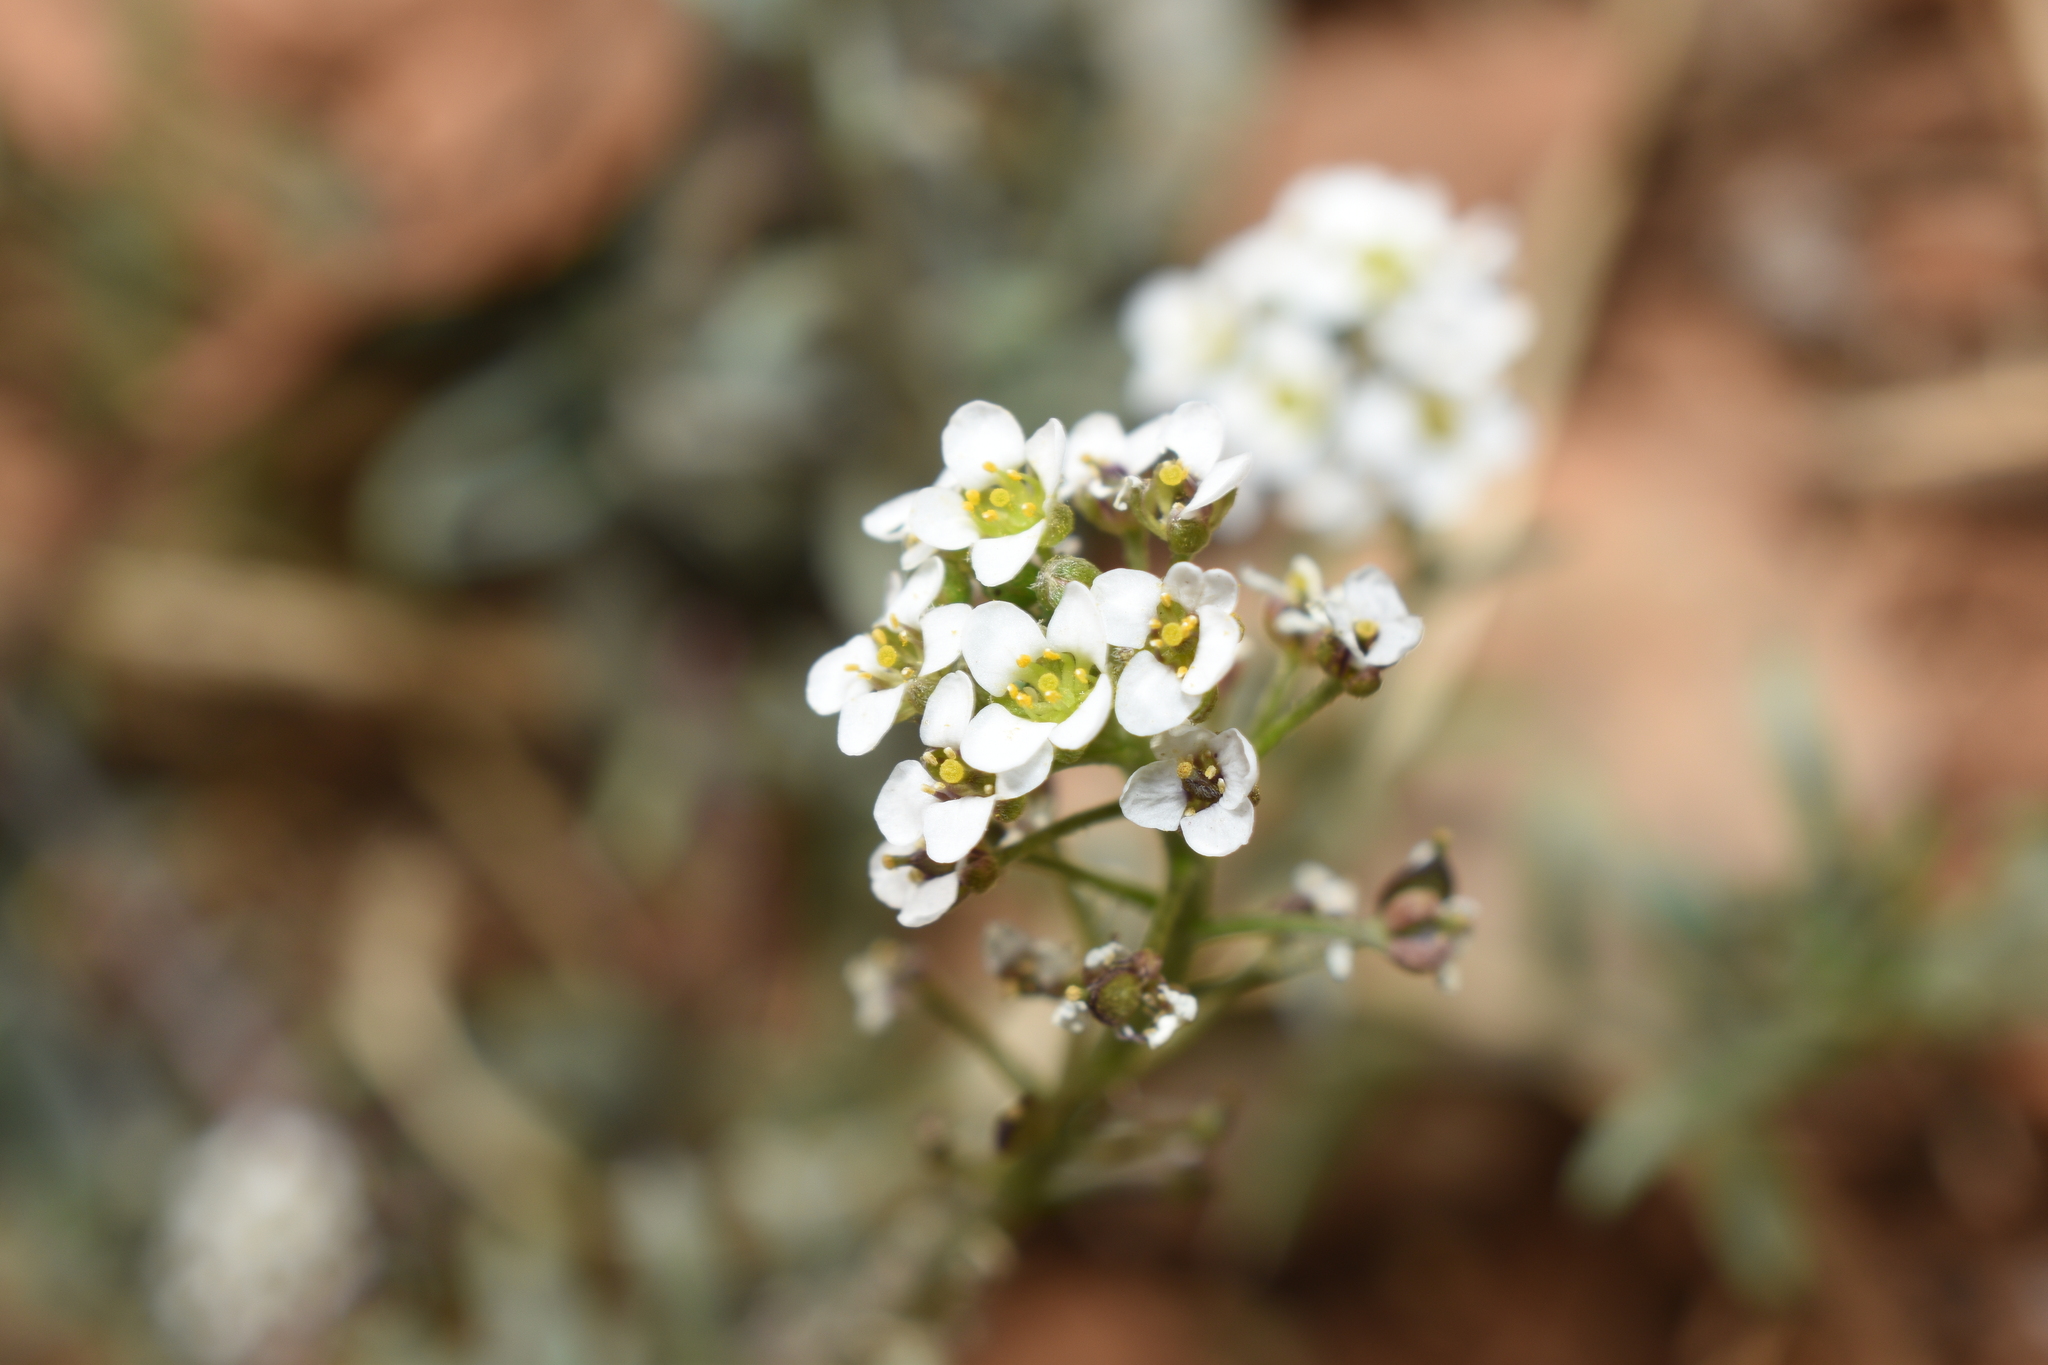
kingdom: Plantae
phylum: Tracheophyta
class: Magnoliopsida
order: Brassicales
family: Brassicaceae
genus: Lobularia
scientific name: Lobularia maritima
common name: Sweet alison
